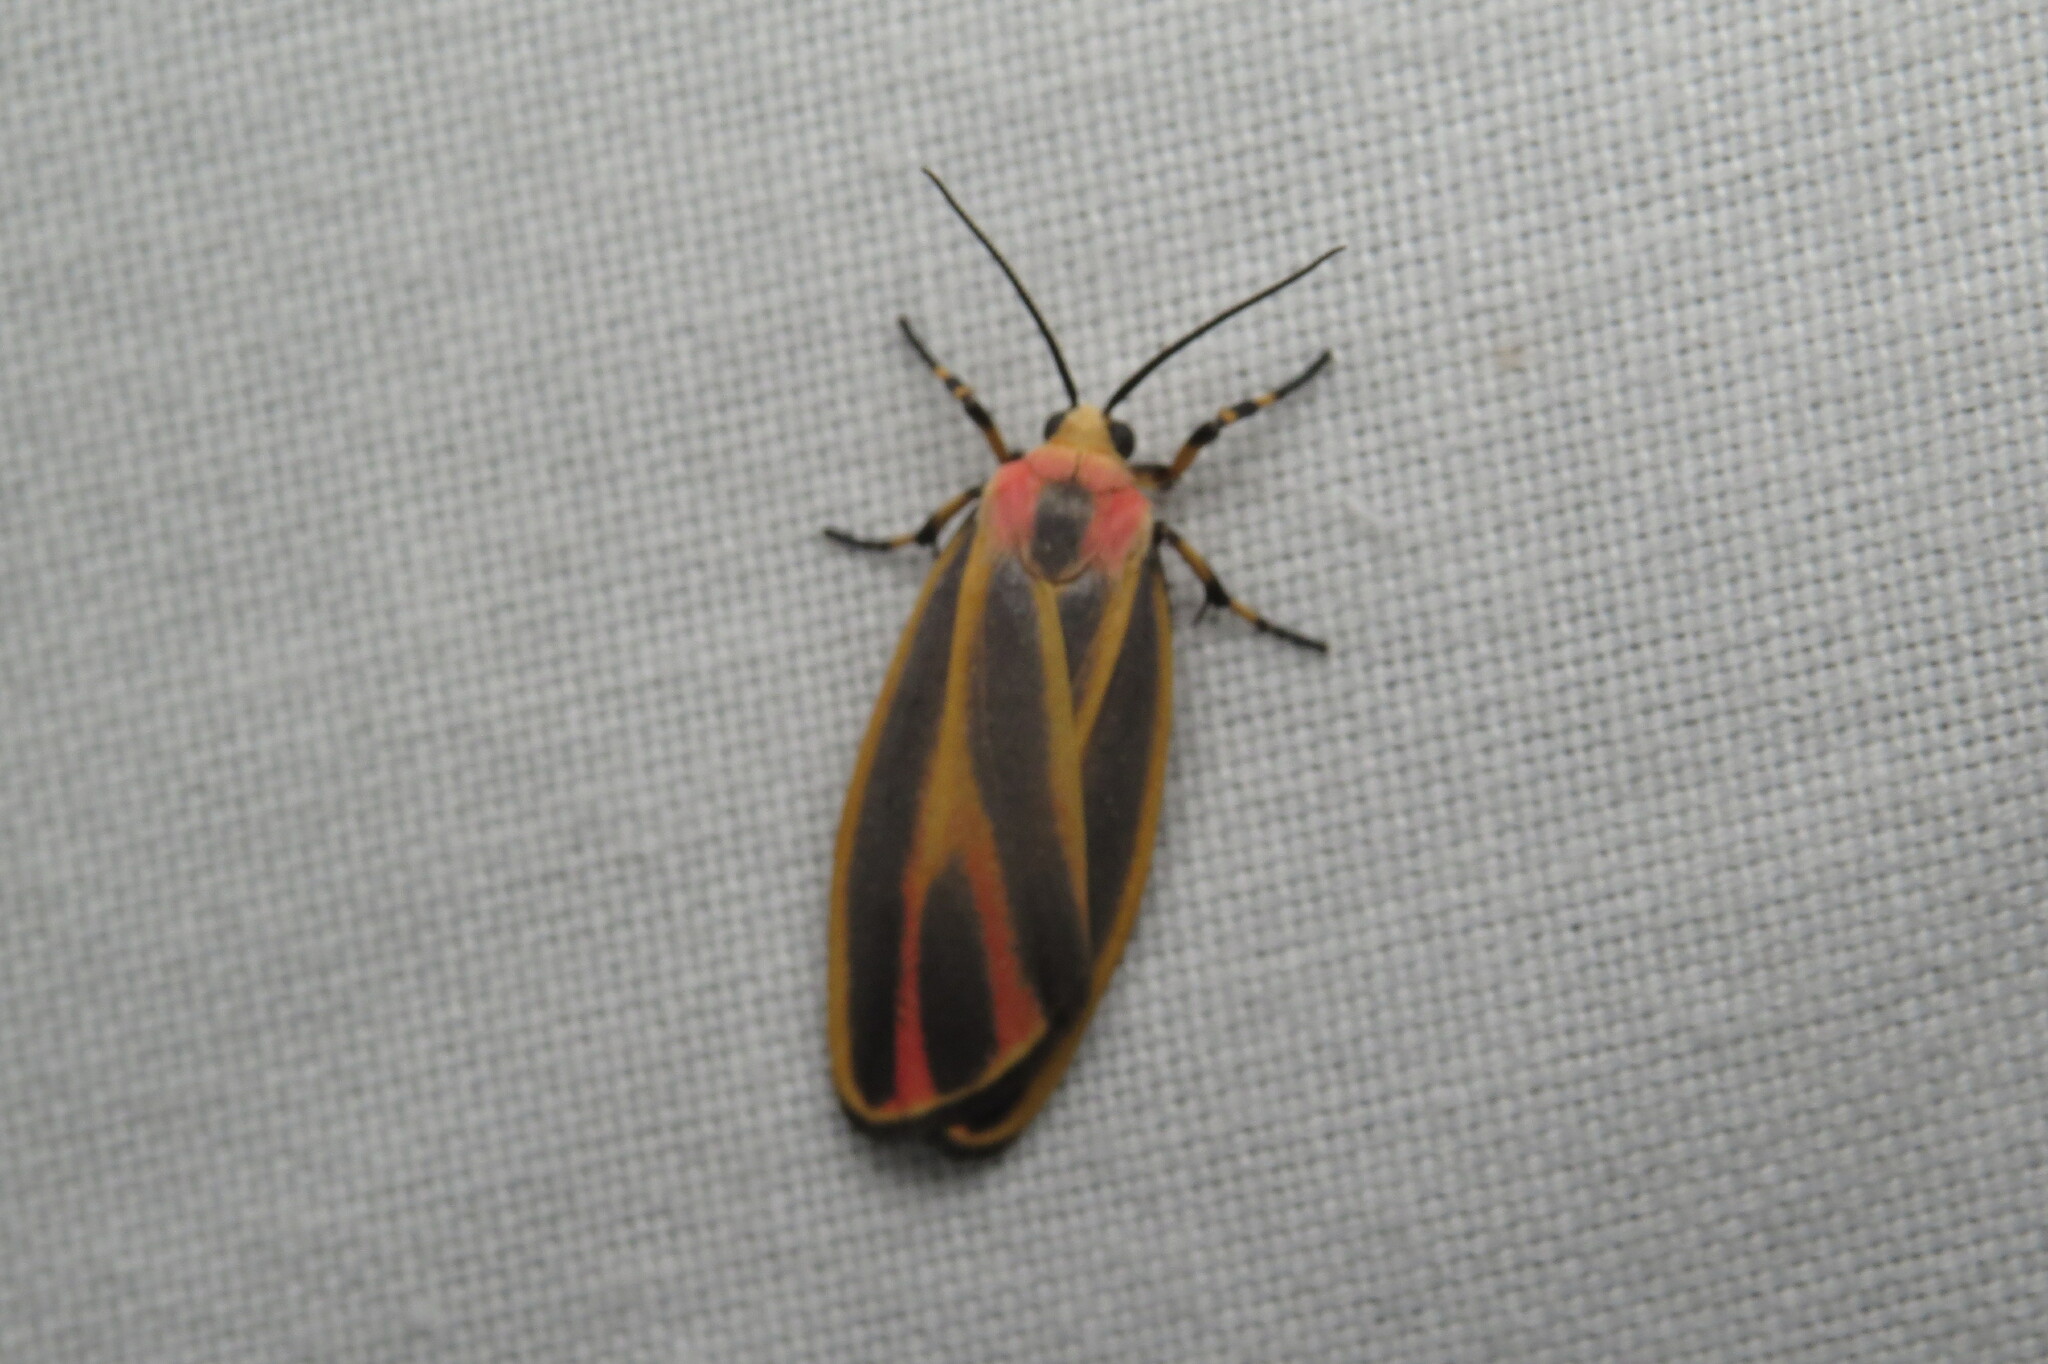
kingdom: Animalia
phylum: Arthropoda
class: Insecta
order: Lepidoptera
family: Erebidae
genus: Hypoprepia
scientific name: Hypoprepia fucosa
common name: Painted lichen moth
